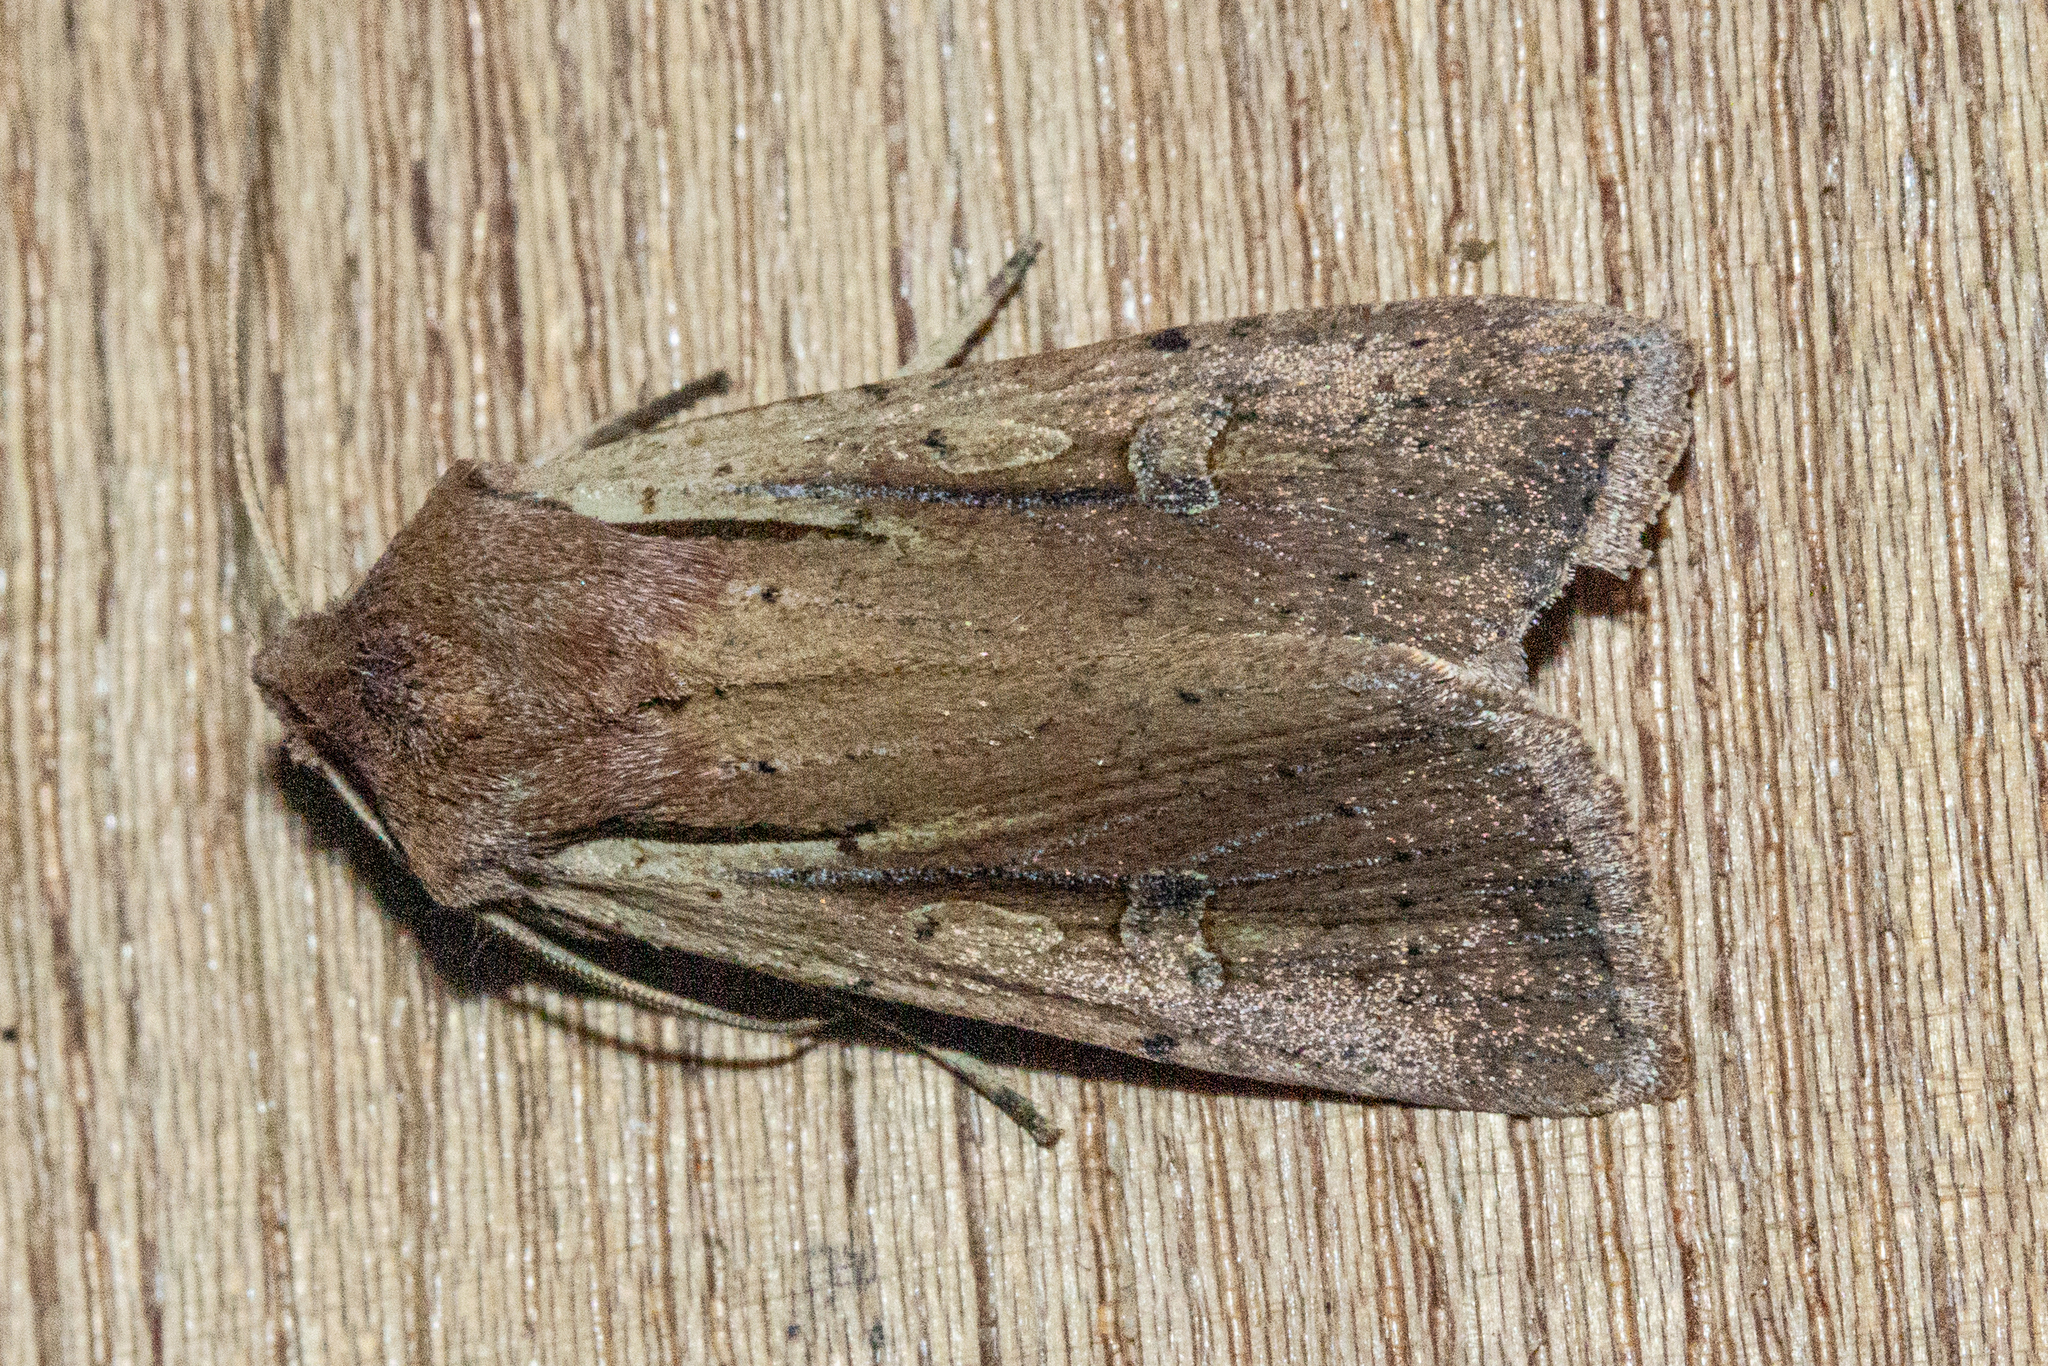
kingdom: Animalia
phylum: Arthropoda
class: Insecta
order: Lepidoptera
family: Noctuidae
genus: Ichneutica
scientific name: Ichneutica atristriga
